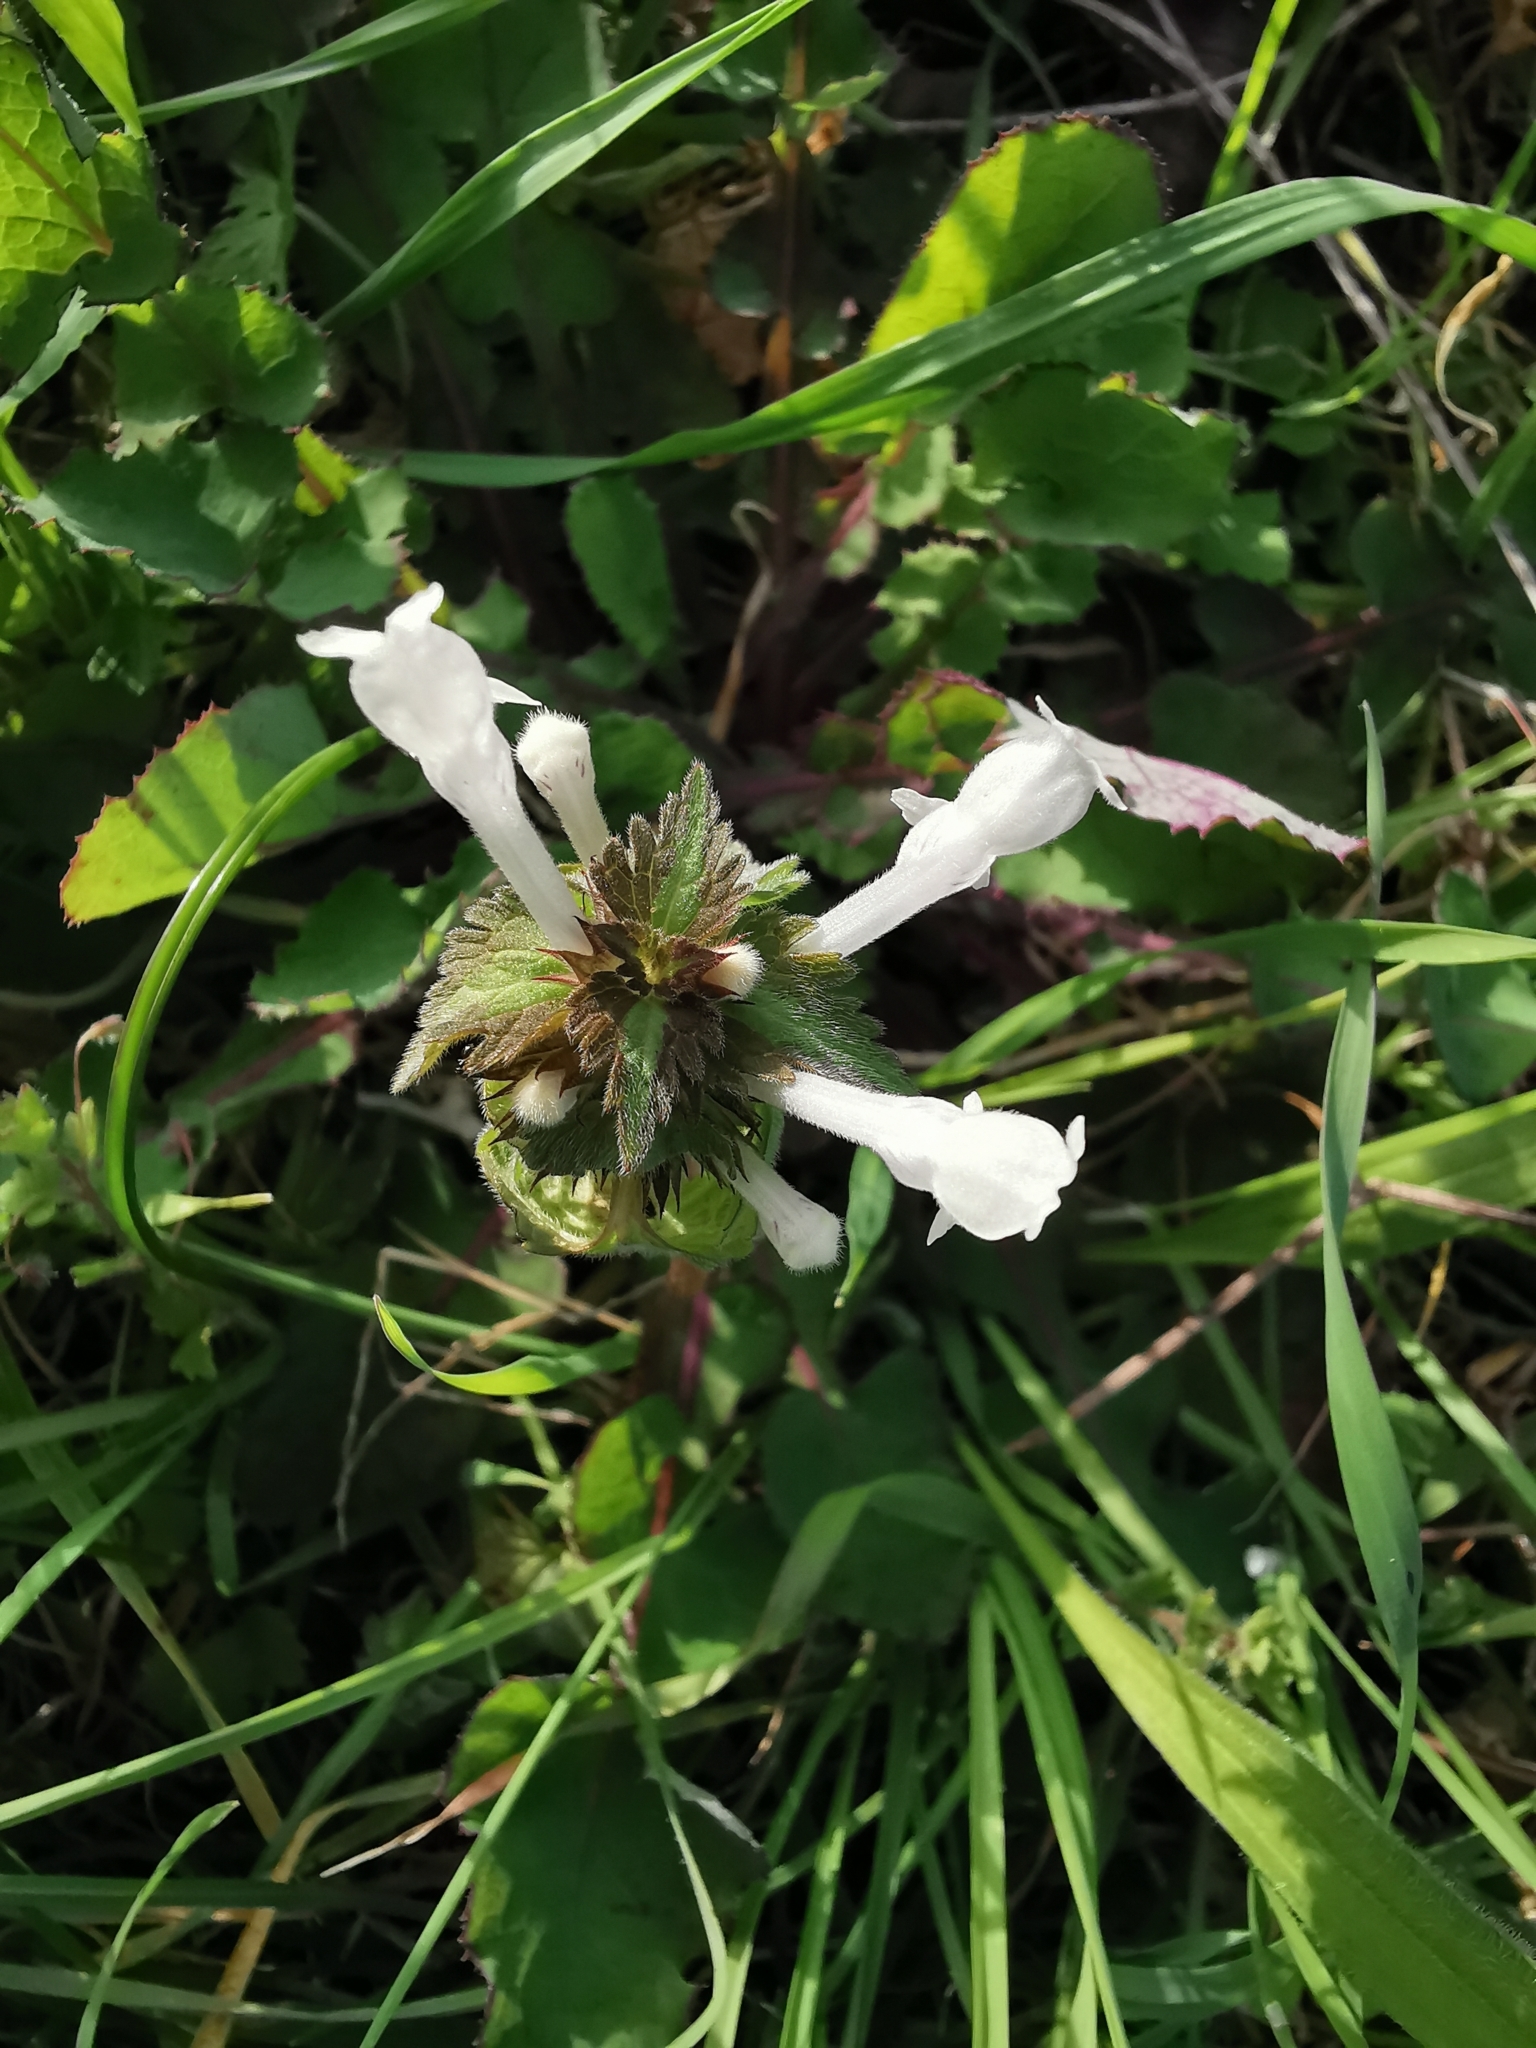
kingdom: Plantae
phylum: Tracheophyta
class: Magnoliopsida
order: Lamiales
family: Lamiaceae
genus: Lamium
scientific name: Lamium bifidum
